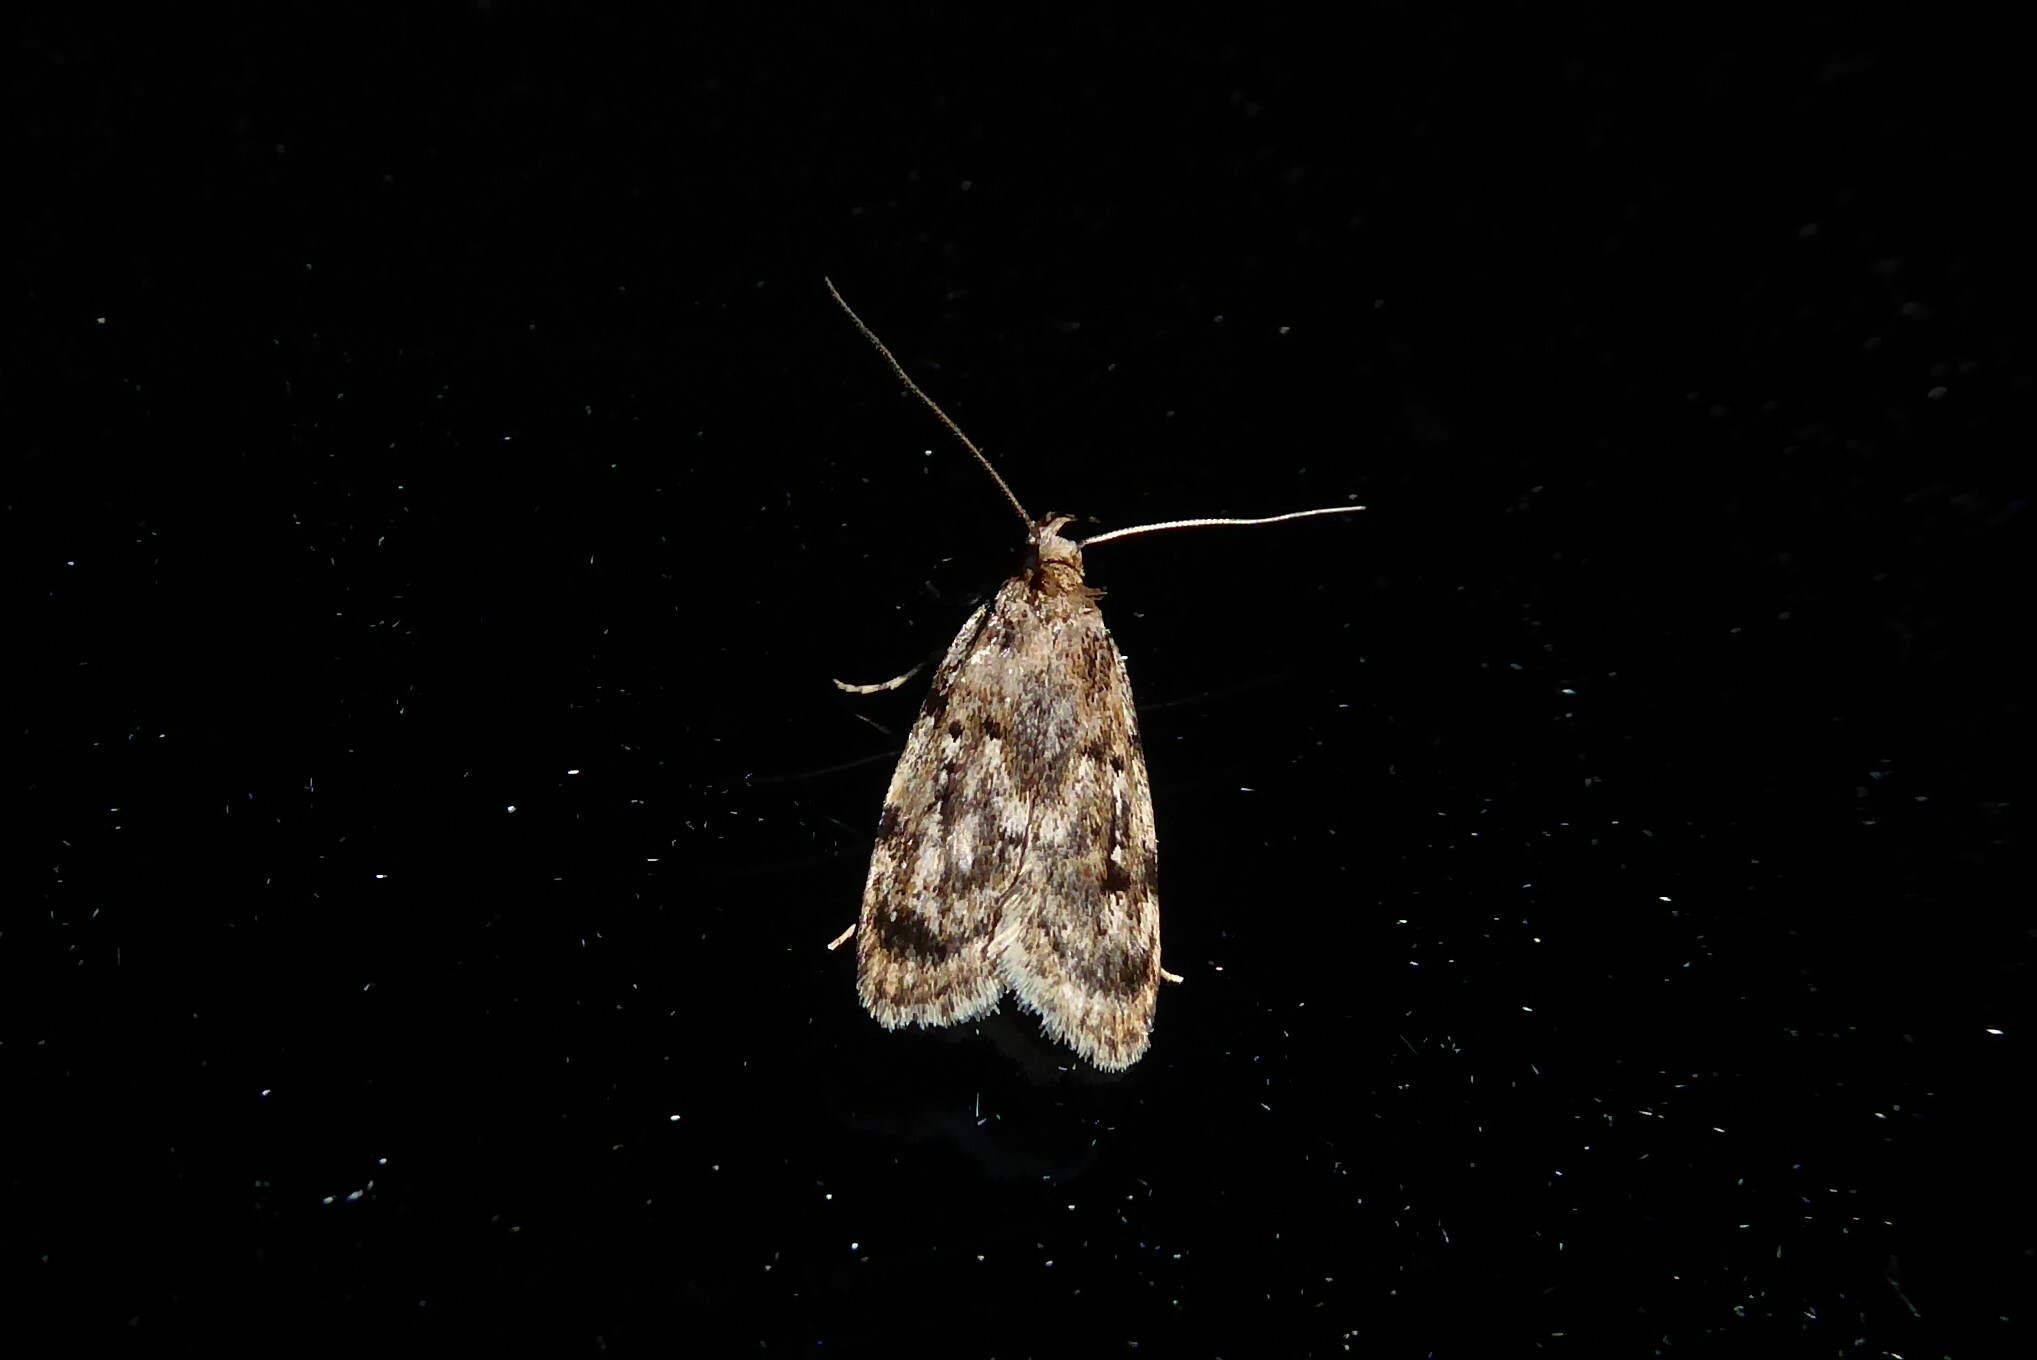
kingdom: Animalia
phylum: Arthropoda
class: Insecta
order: Lepidoptera
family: Oecophoridae
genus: Barea
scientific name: Barea exarcha
